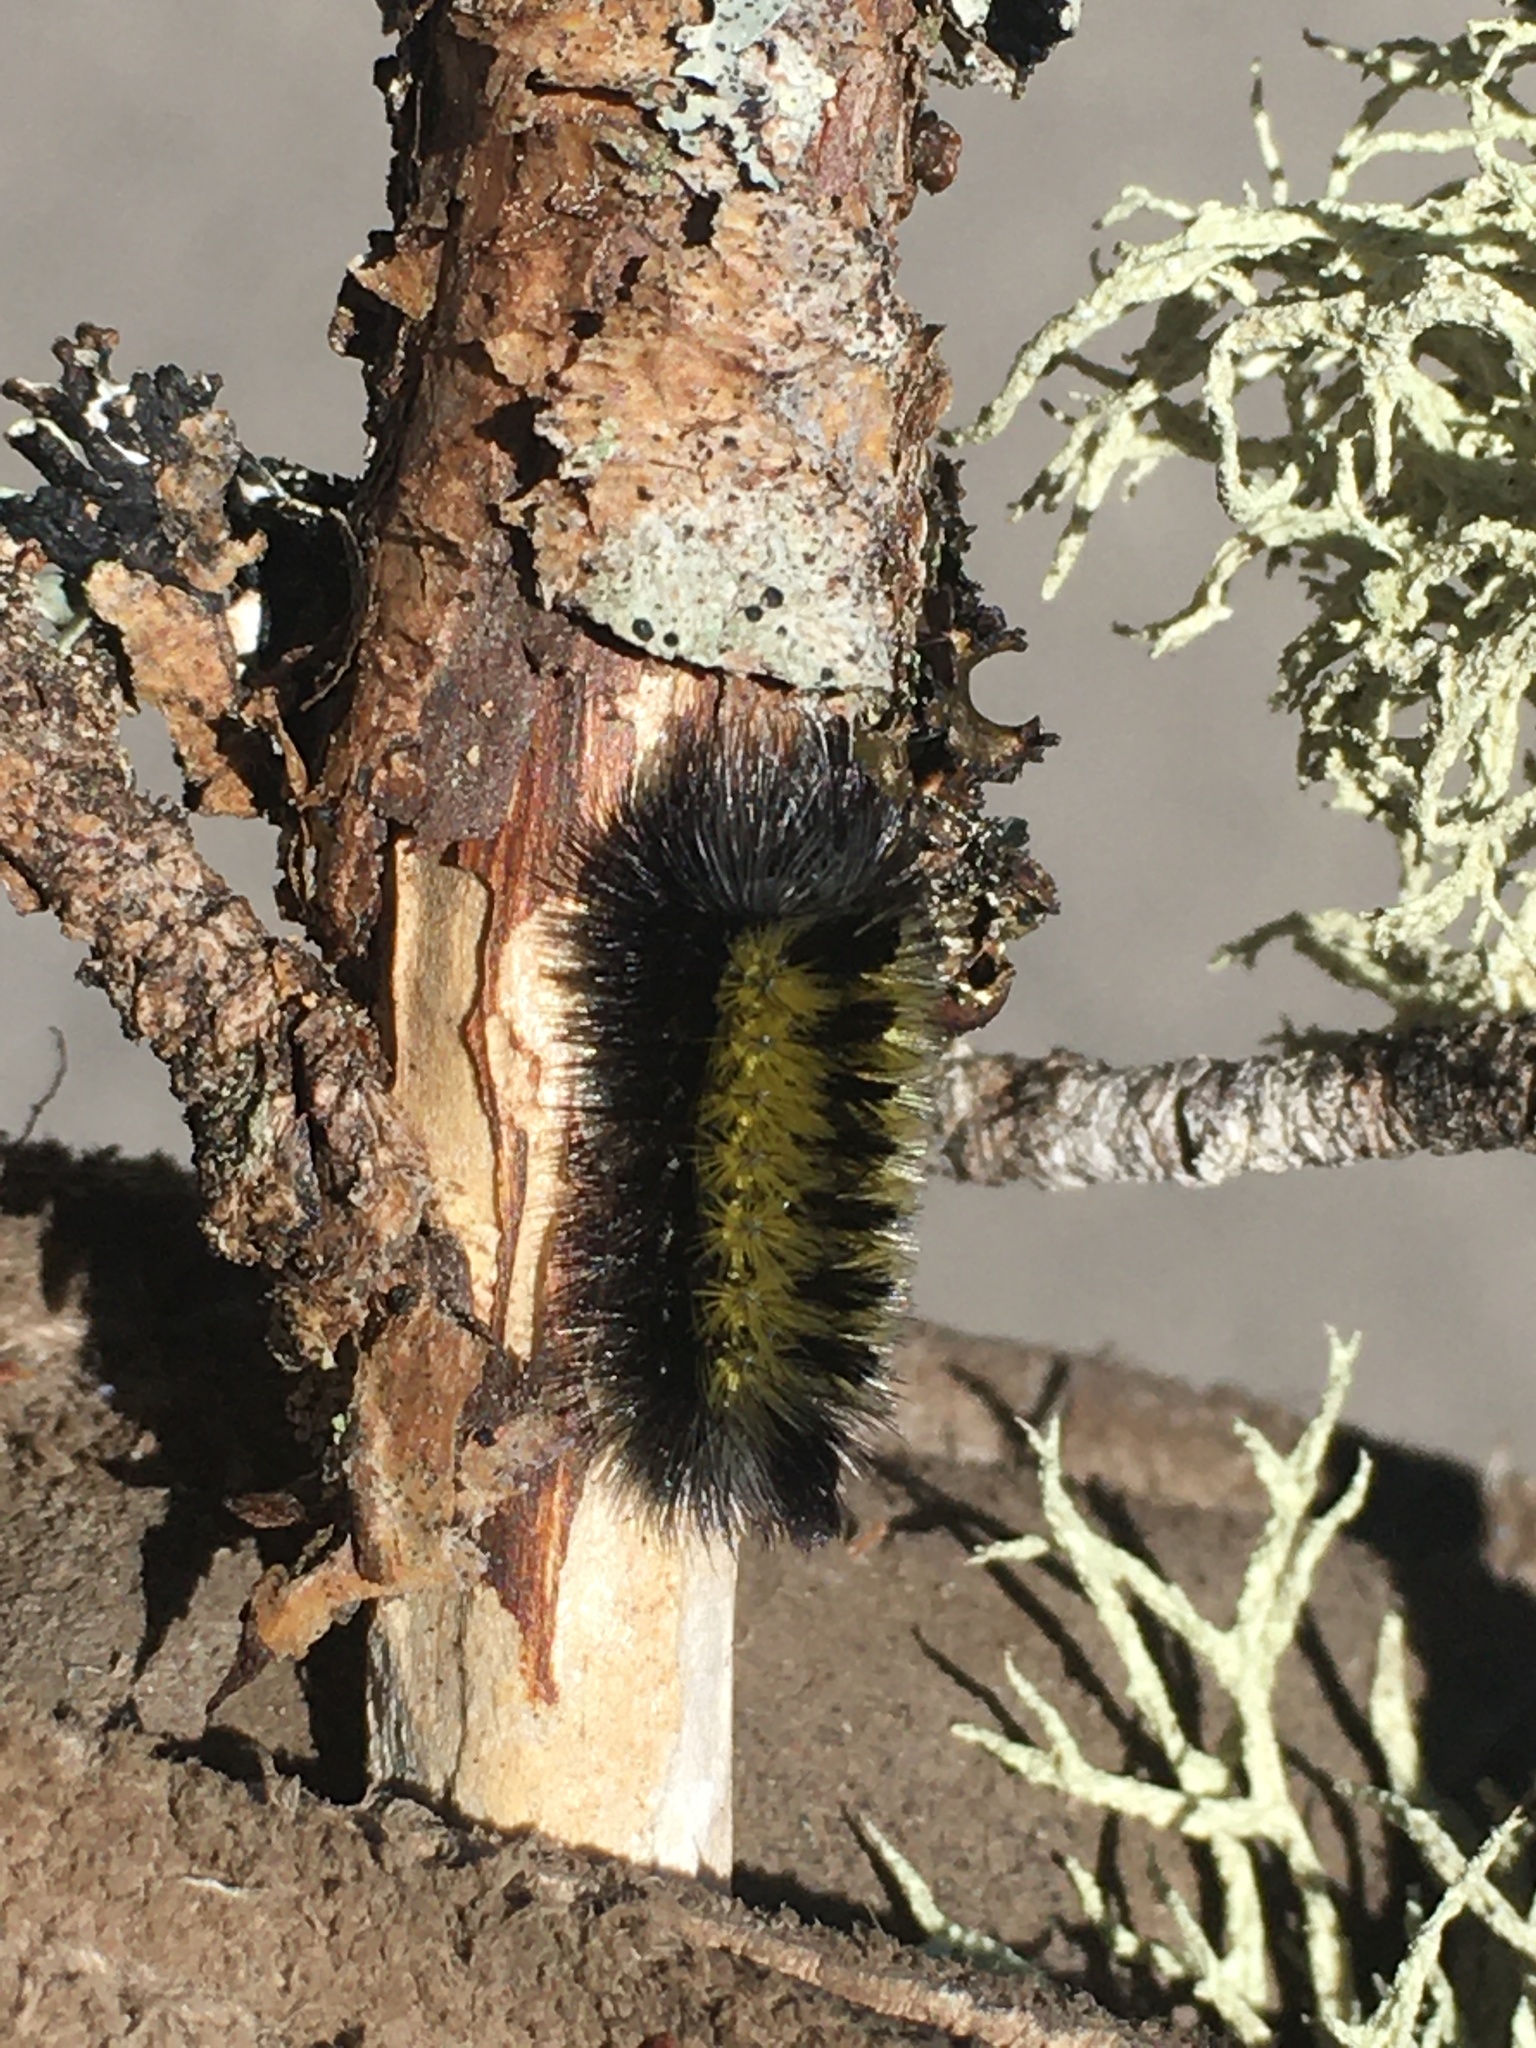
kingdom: Animalia
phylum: Arthropoda
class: Insecta
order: Lepidoptera
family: Erebidae
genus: Ctenucha
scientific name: Ctenucha virginica
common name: Virginia ctenucha moth
